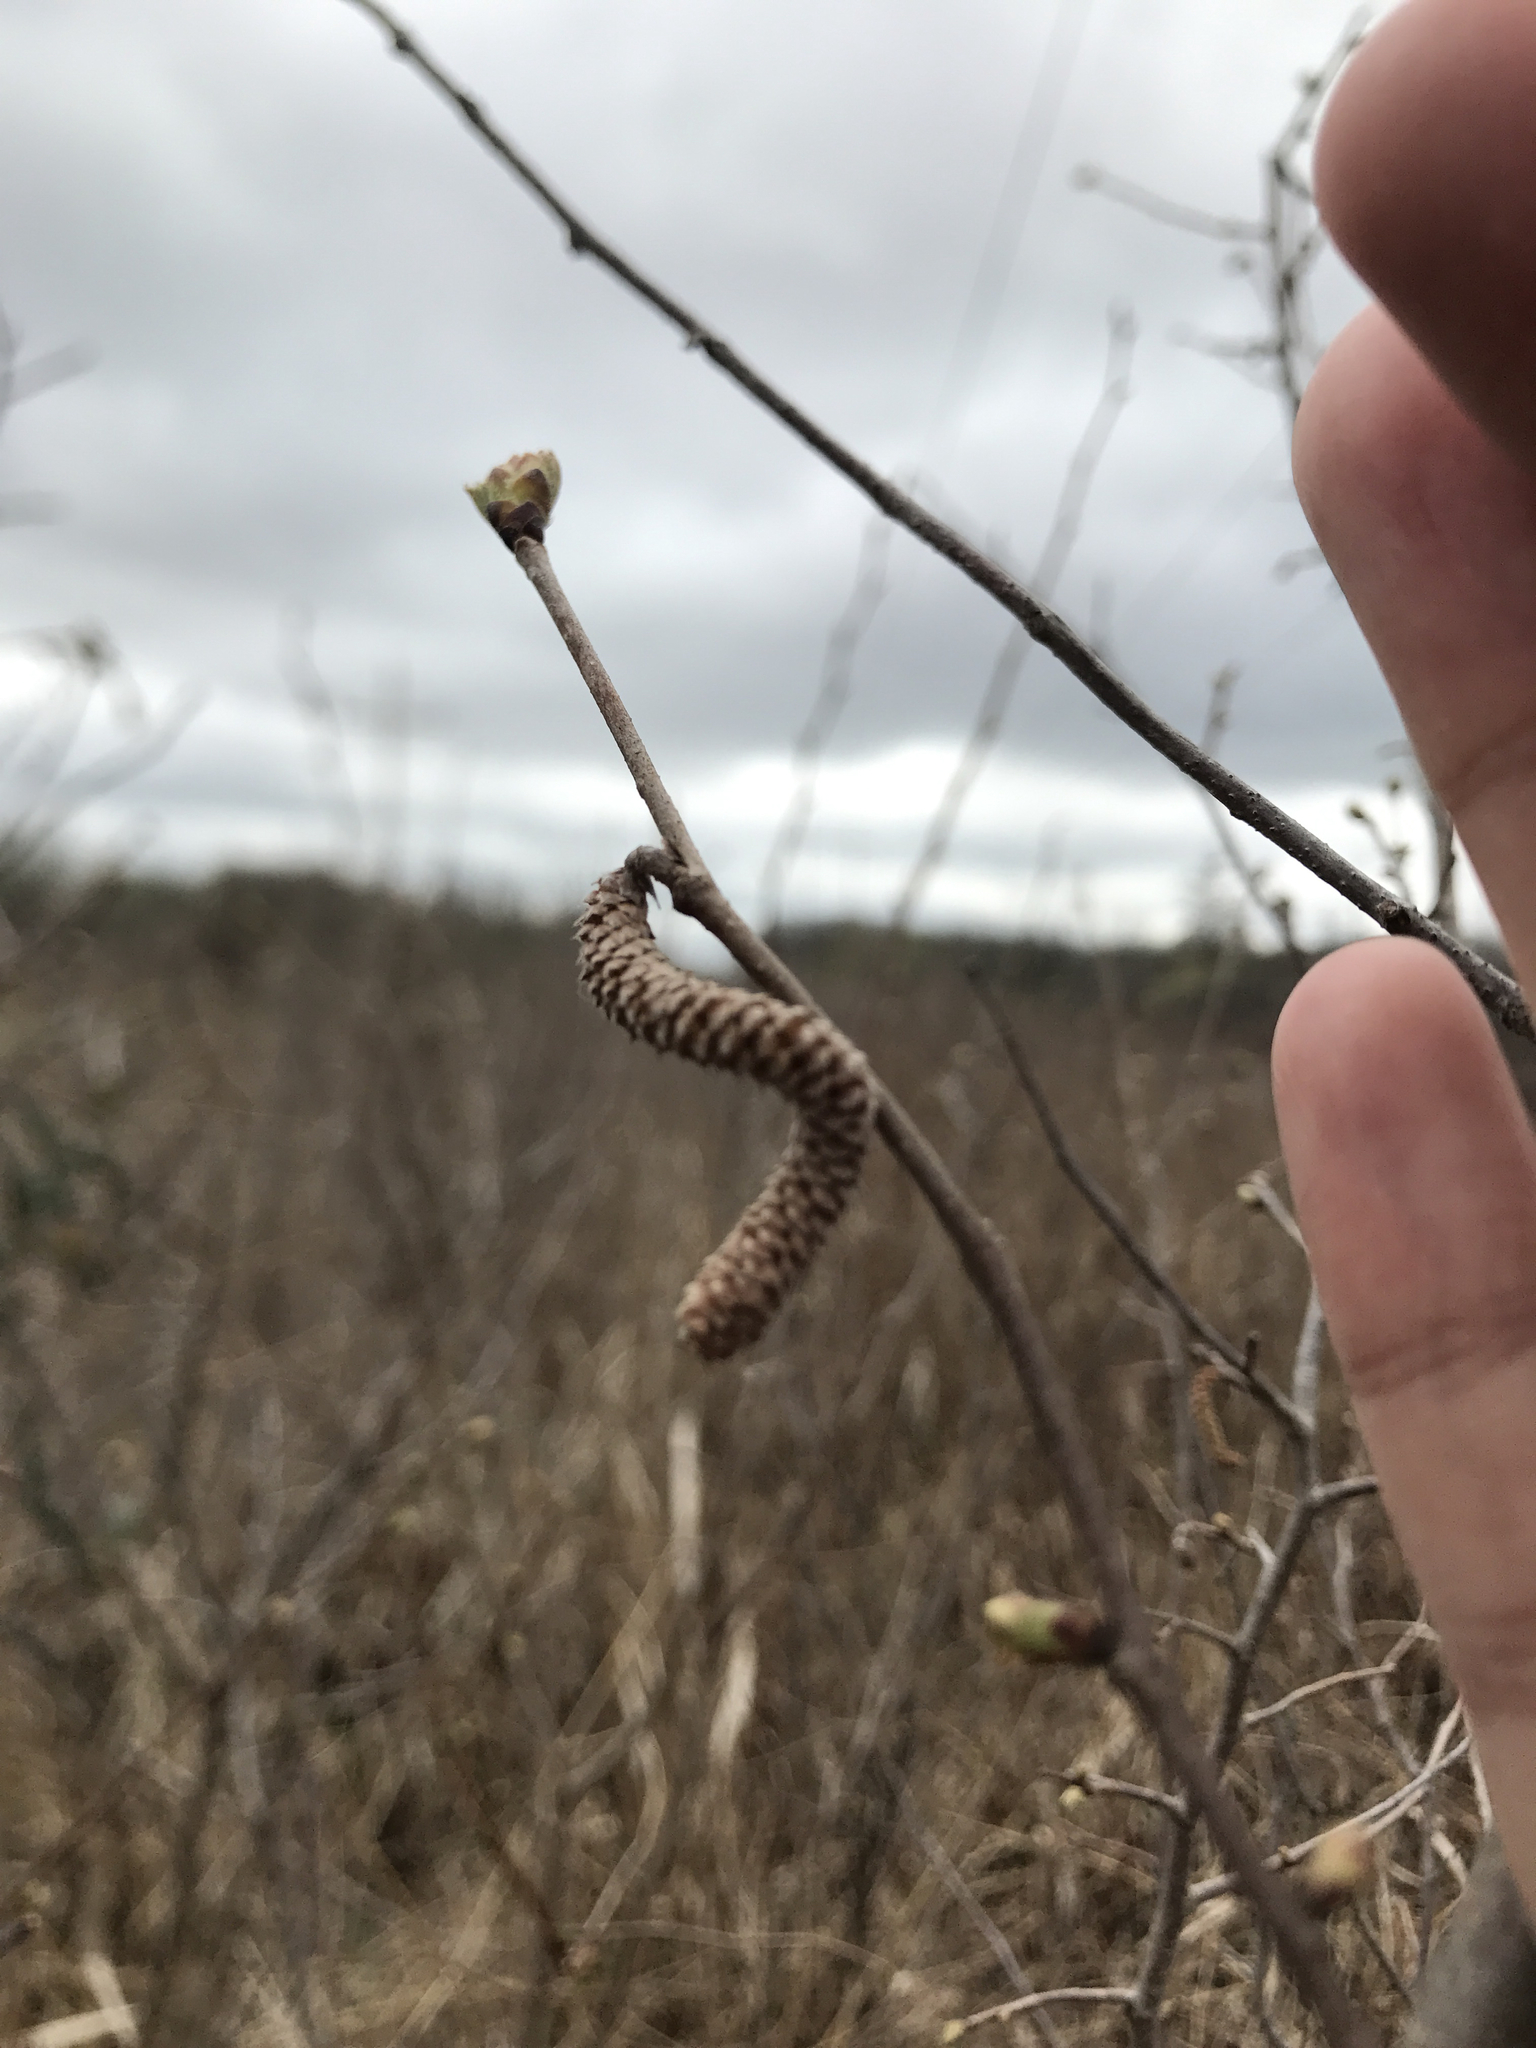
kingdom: Plantae
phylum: Tracheophyta
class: Magnoliopsida
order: Fagales
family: Betulaceae
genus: Corylus
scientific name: Corylus americana
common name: American hazel
